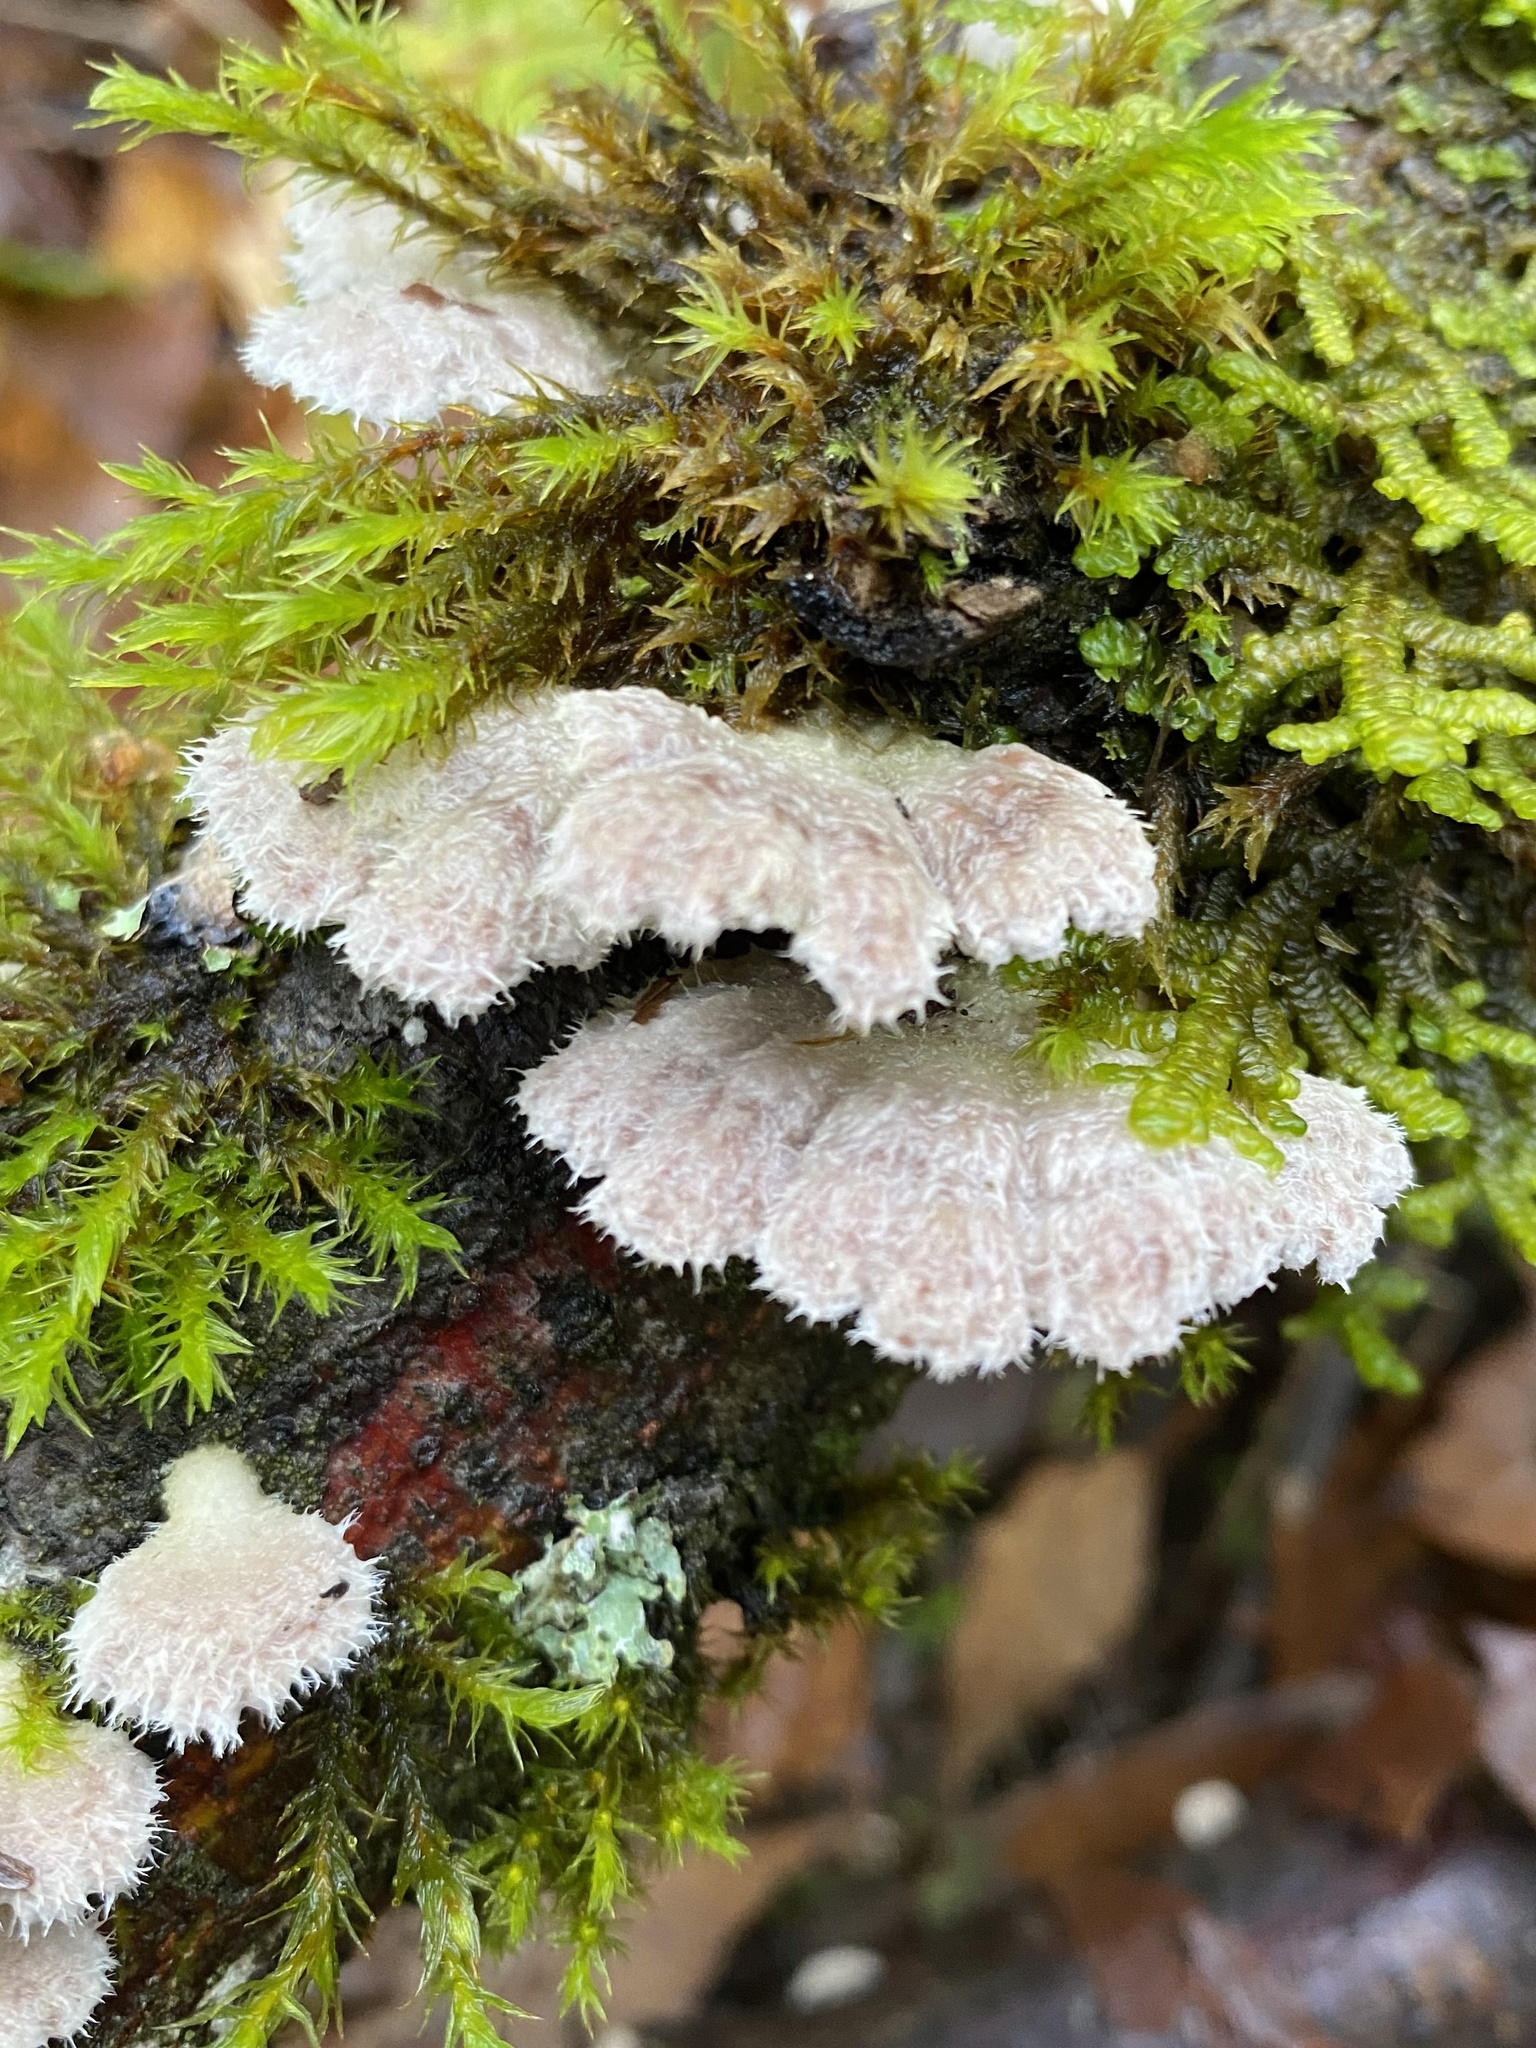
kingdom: Fungi
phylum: Basidiomycota
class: Agaricomycetes
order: Agaricales
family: Schizophyllaceae
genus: Schizophyllum
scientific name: Schizophyllum commune
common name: Common porecrust
